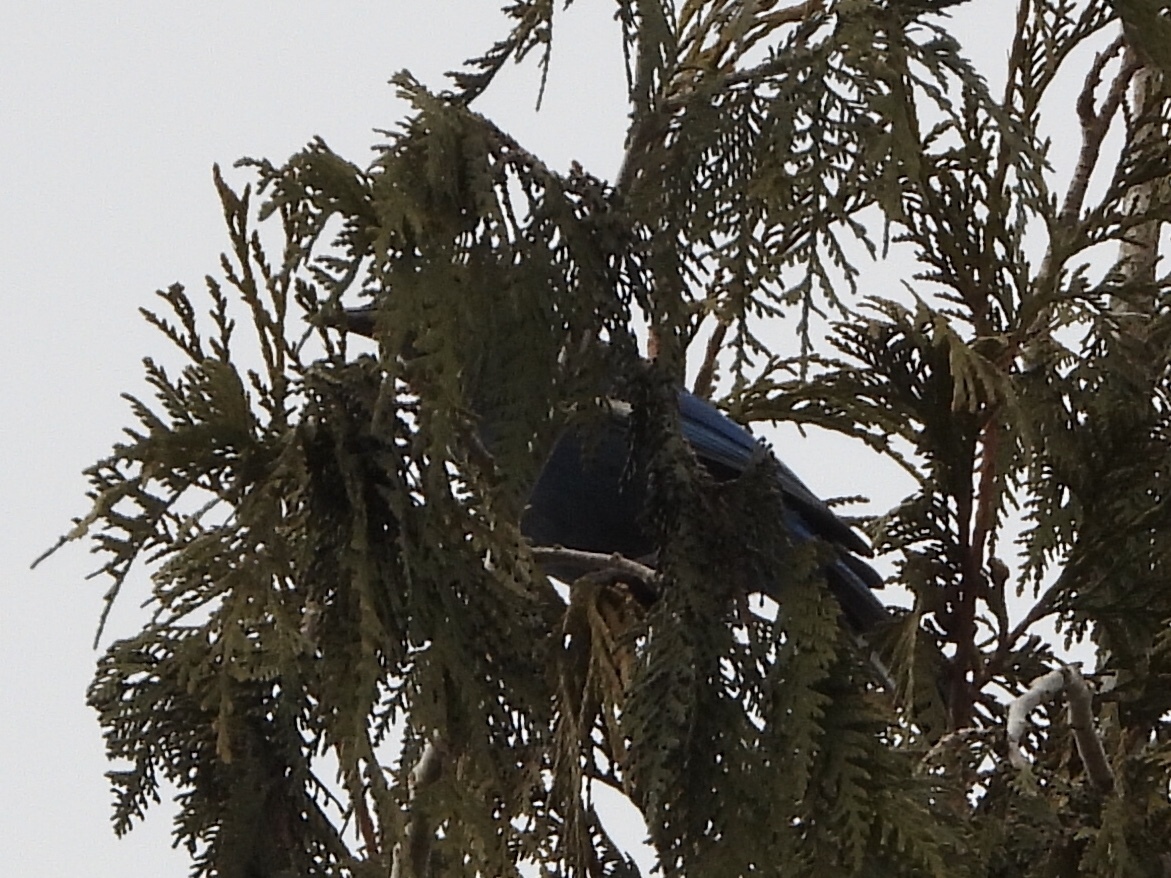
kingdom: Animalia
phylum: Chordata
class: Aves
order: Passeriformes
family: Corvidae
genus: Cyanocitta
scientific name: Cyanocitta stelleri
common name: Steller's jay
